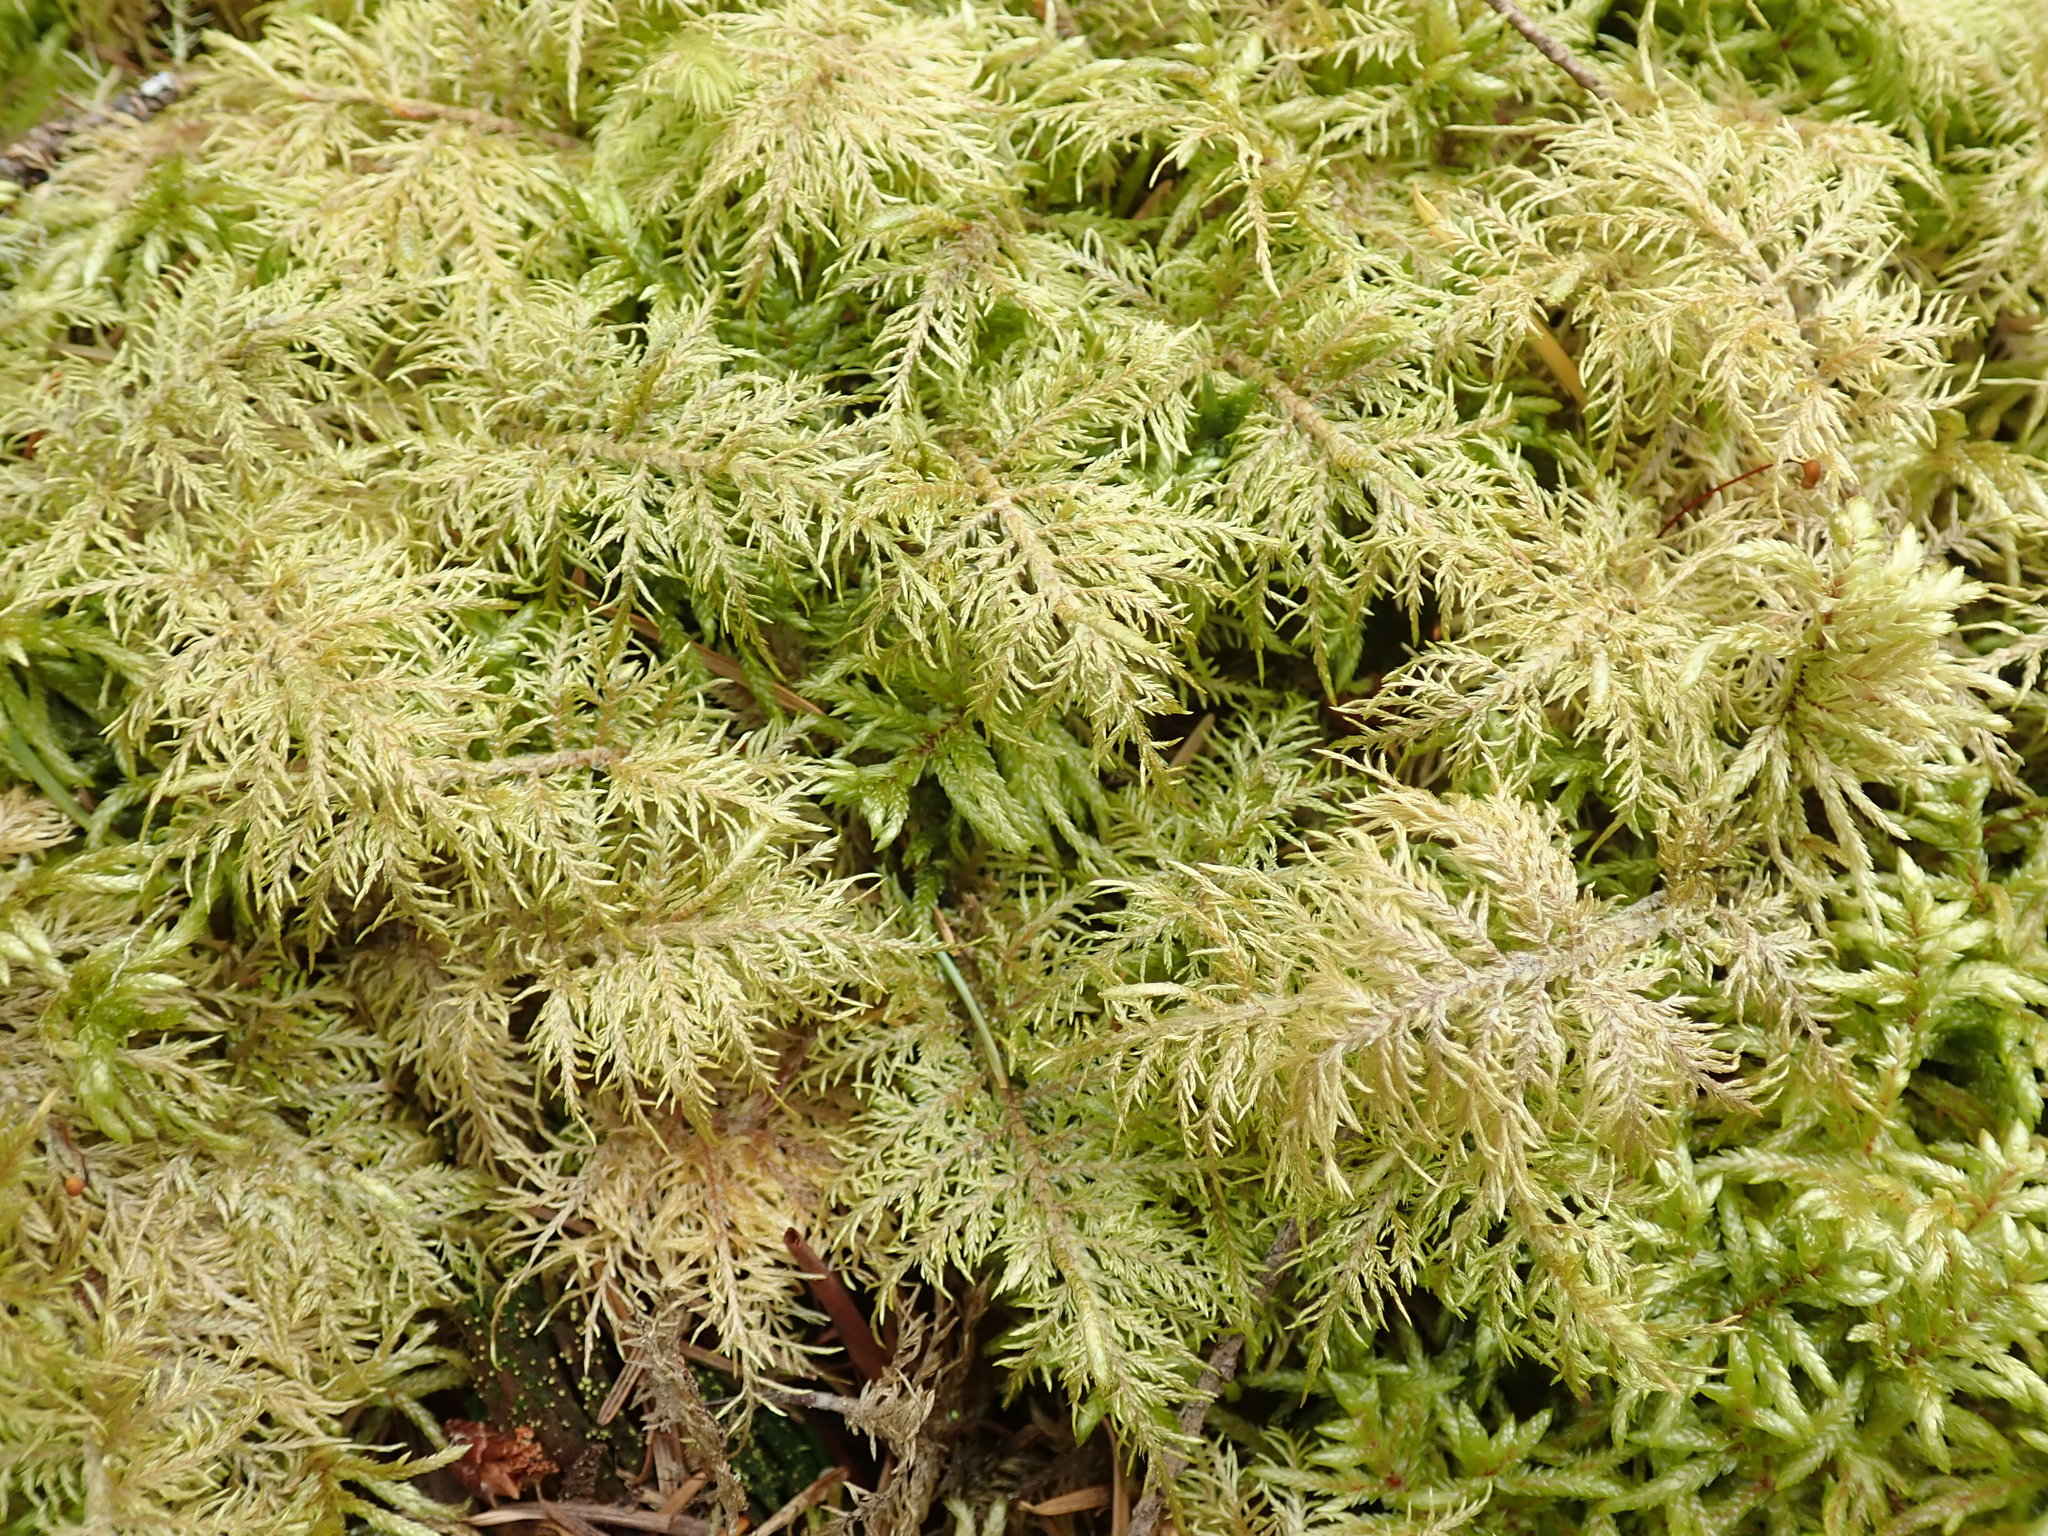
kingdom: Plantae
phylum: Bryophyta
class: Bryopsida
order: Hypnales
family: Hylocomiaceae
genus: Hylocomium
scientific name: Hylocomium splendens
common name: Stairstep moss
